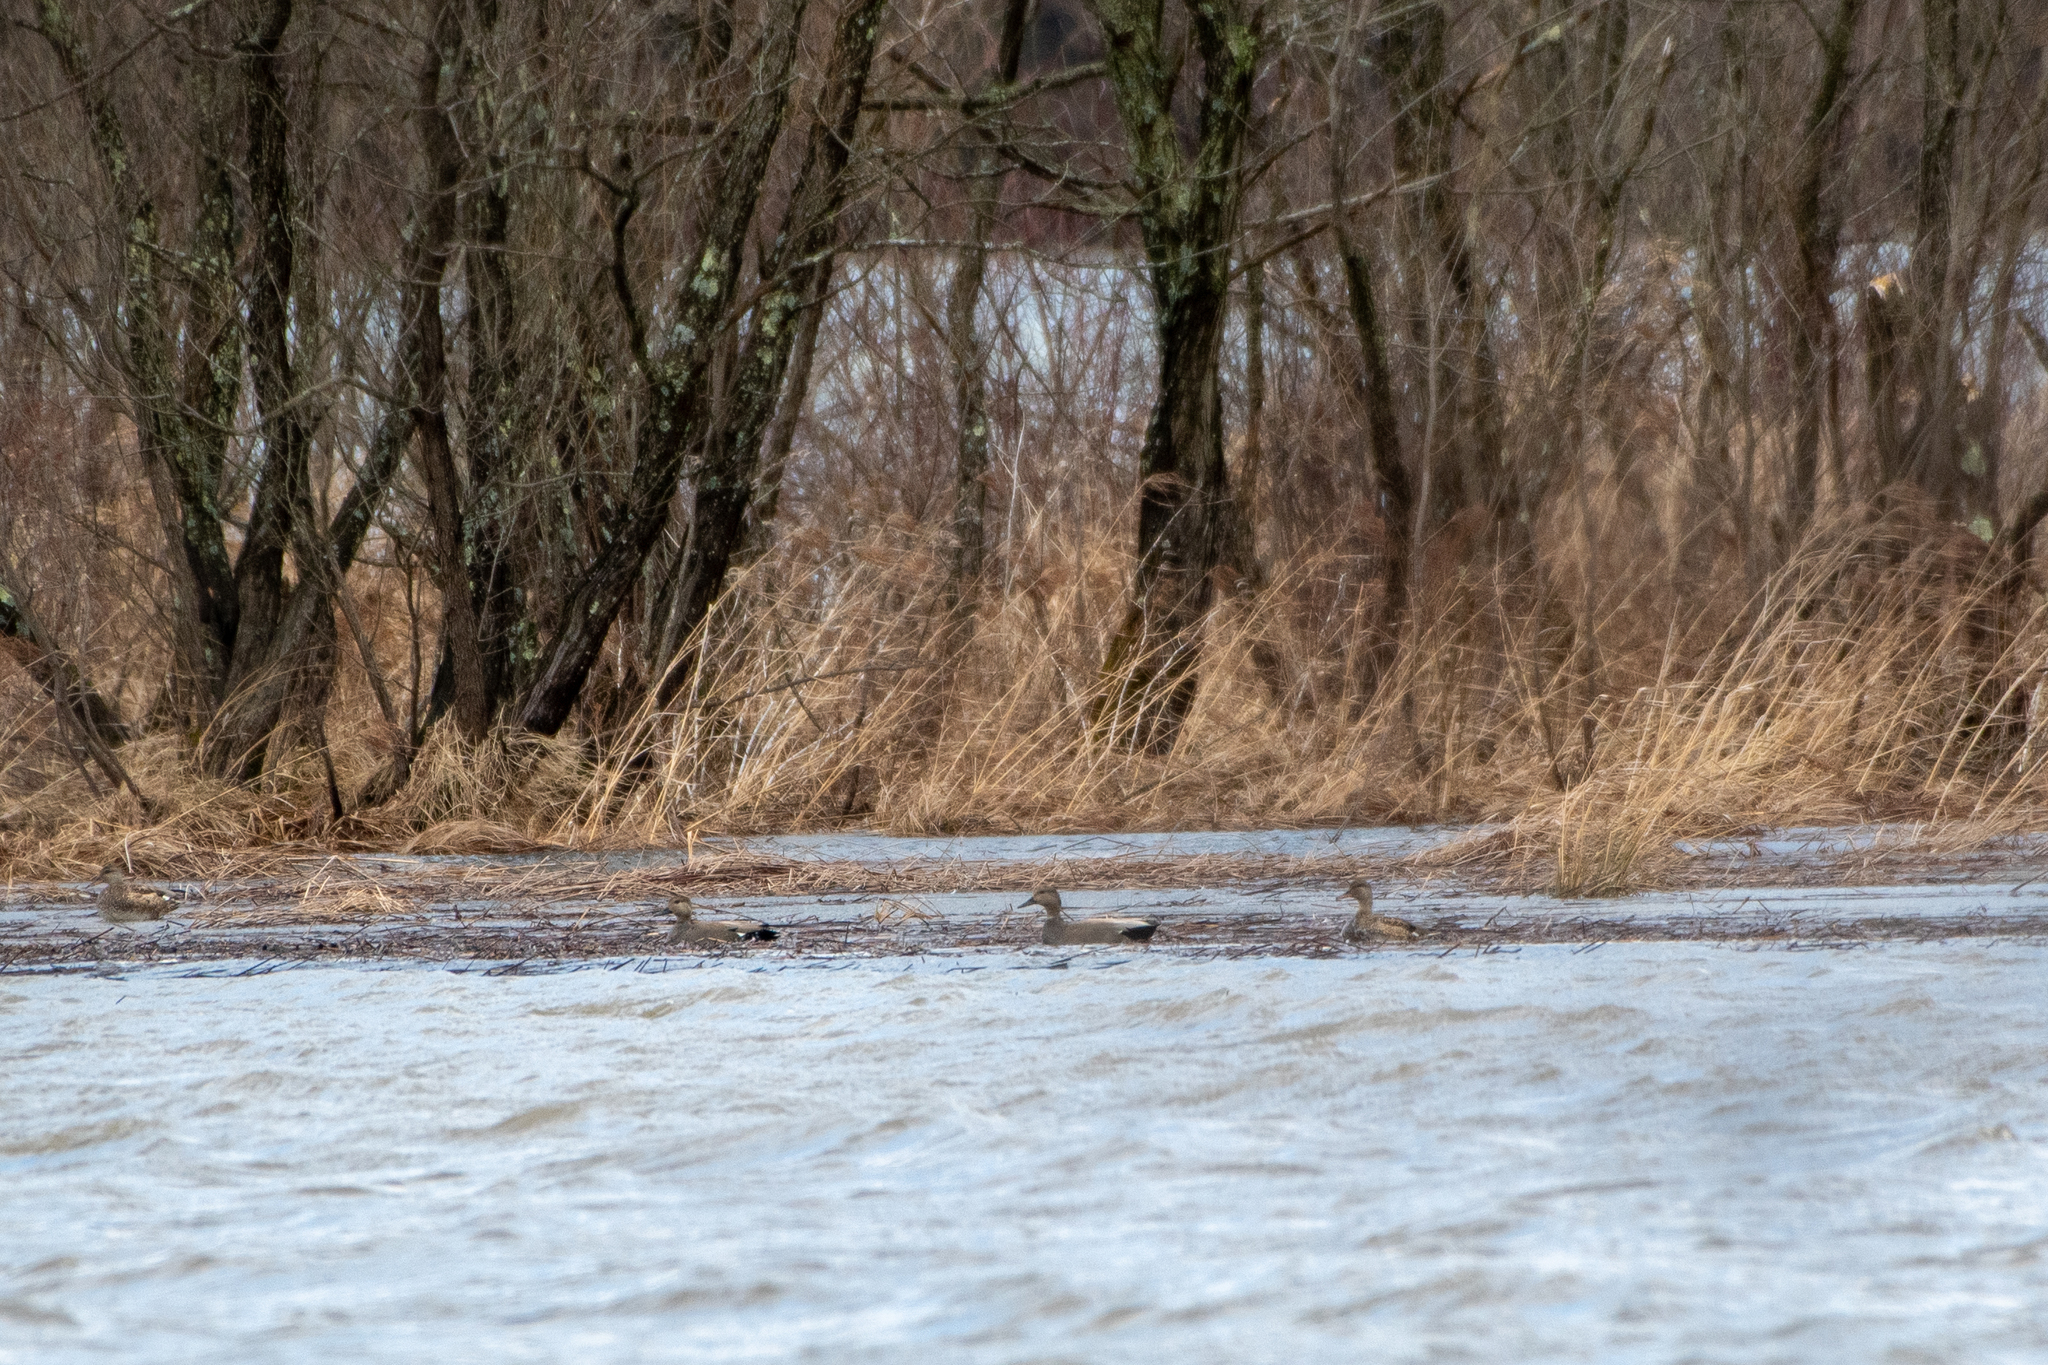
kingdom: Animalia
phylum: Chordata
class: Aves
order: Anseriformes
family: Anatidae
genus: Mareca
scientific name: Mareca strepera
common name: Gadwall
